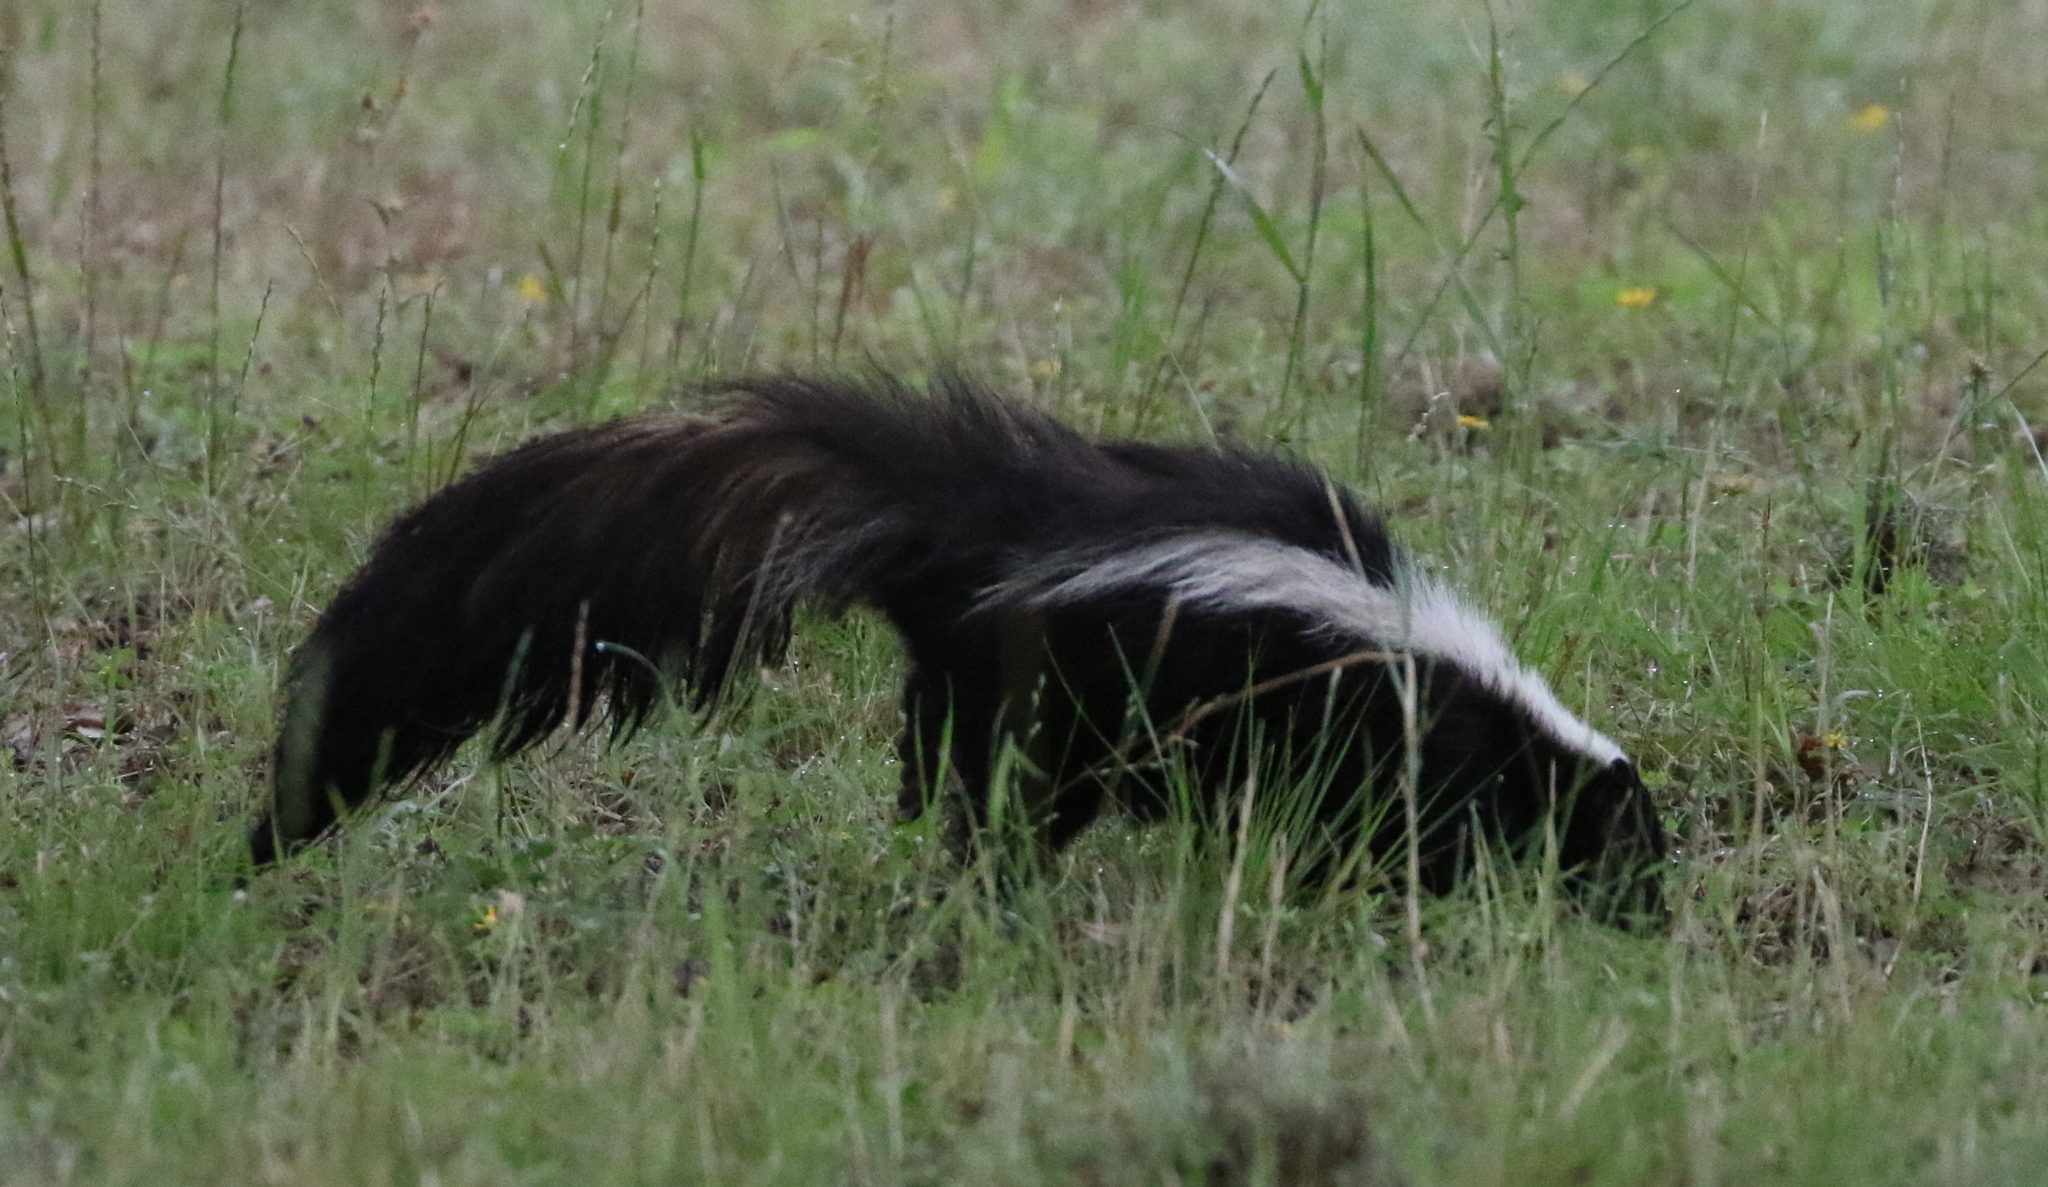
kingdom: Animalia
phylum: Chordata
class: Mammalia
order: Carnivora
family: Mephitidae
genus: Mephitis
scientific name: Mephitis mephitis
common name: Striped skunk
